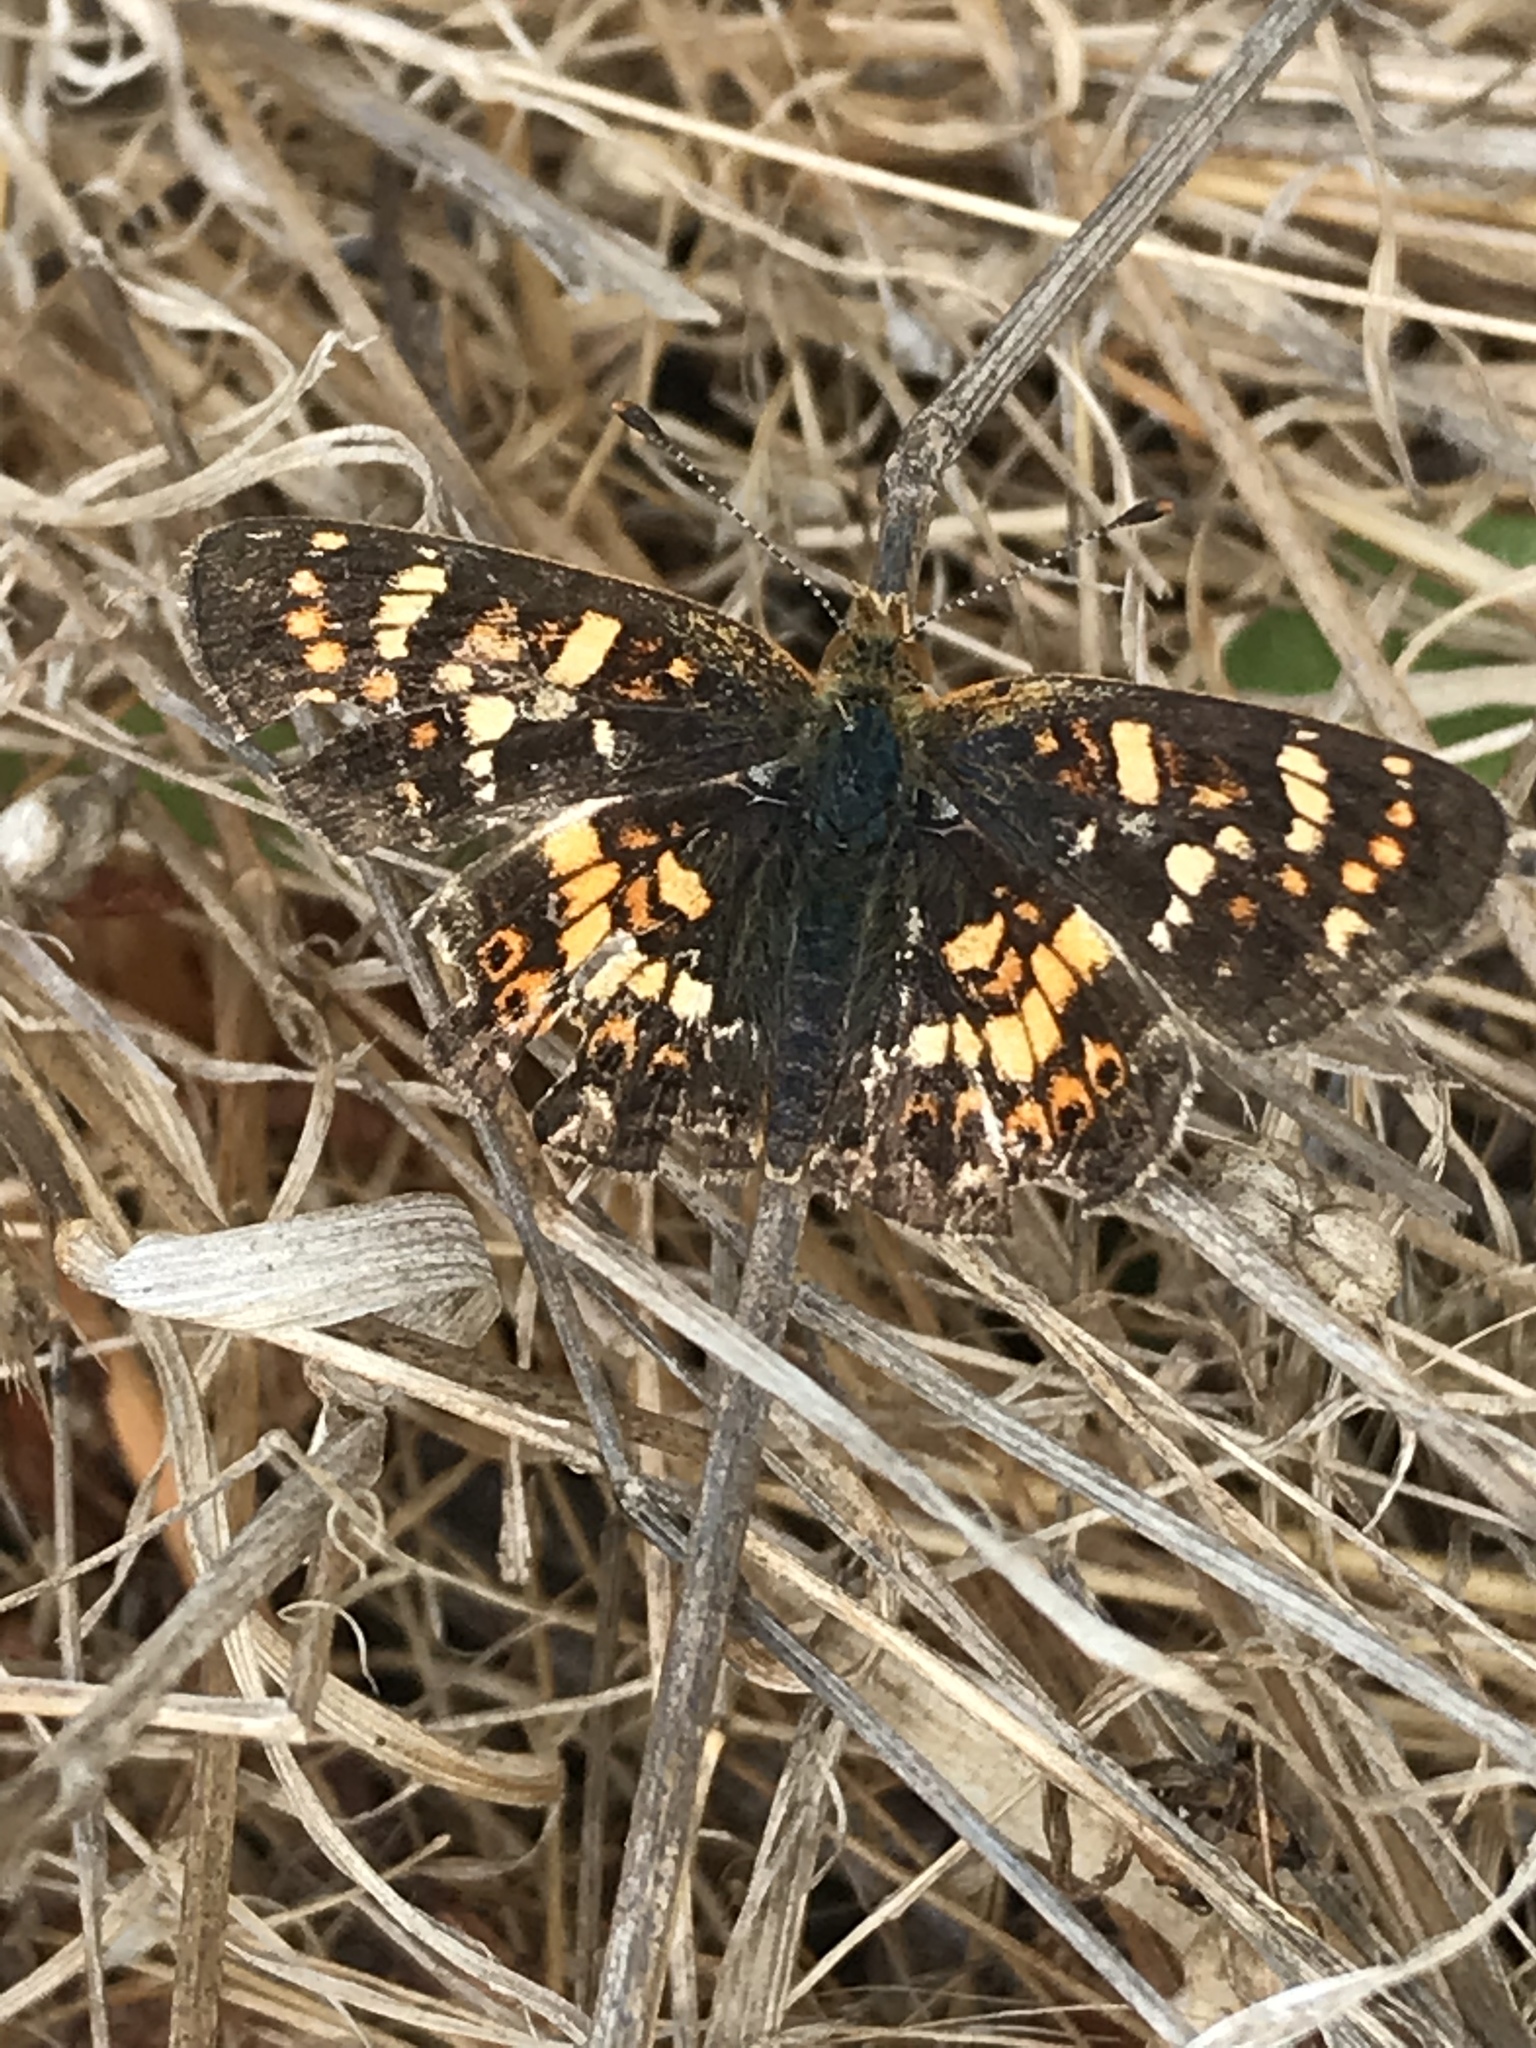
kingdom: Animalia
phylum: Arthropoda
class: Insecta
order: Lepidoptera
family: Nymphalidae
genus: Phyciodes
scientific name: Phyciodes tharos
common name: Pearl crescent
